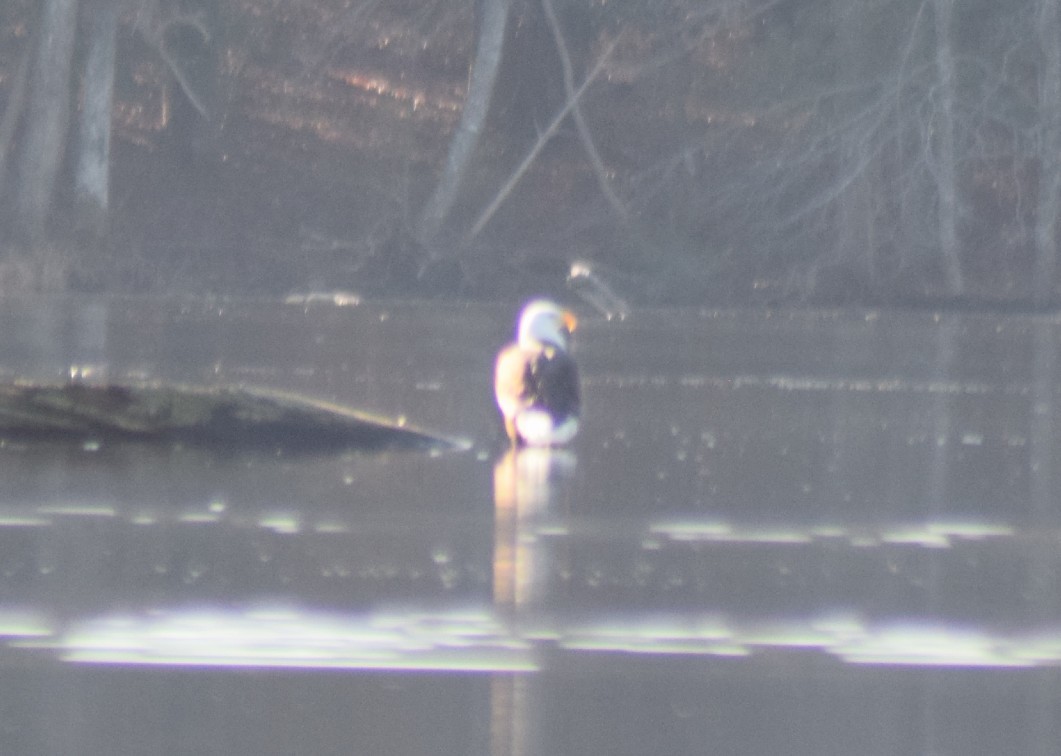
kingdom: Animalia
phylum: Chordata
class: Aves
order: Accipitriformes
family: Accipitridae
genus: Haliaeetus
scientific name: Haliaeetus leucocephalus
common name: Bald eagle
